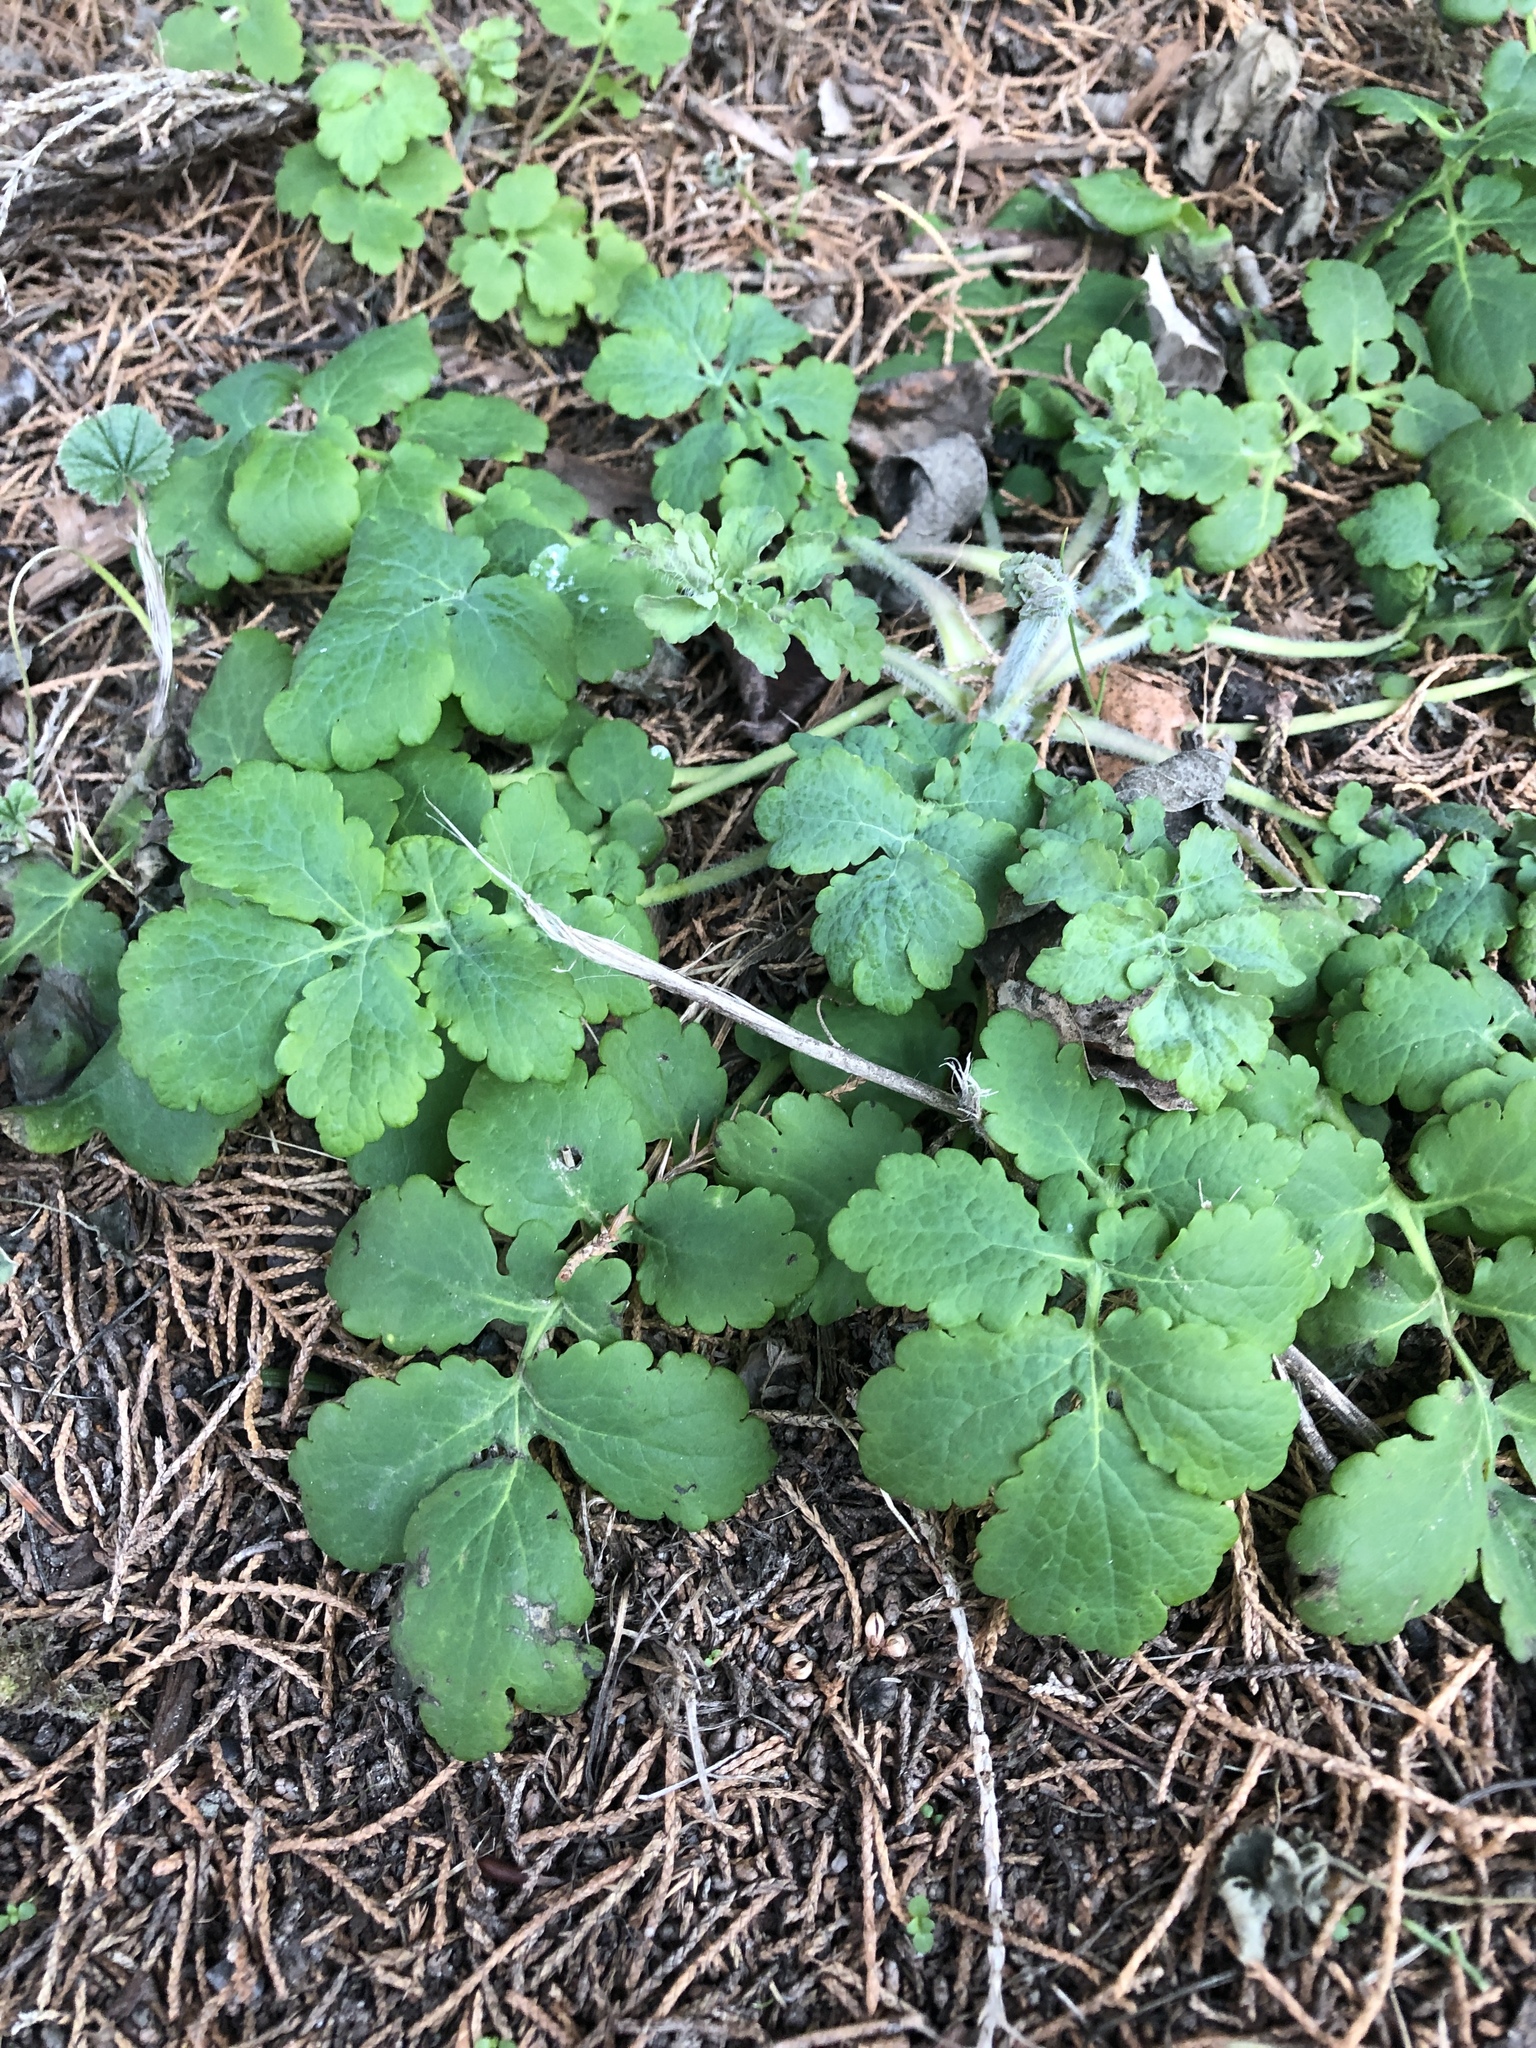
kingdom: Plantae
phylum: Tracheophyta
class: Magnoliopsida
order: Ranunculales
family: Papaveraceae
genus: Chelidonium
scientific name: Chelidonium majus
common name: Greater celandine
